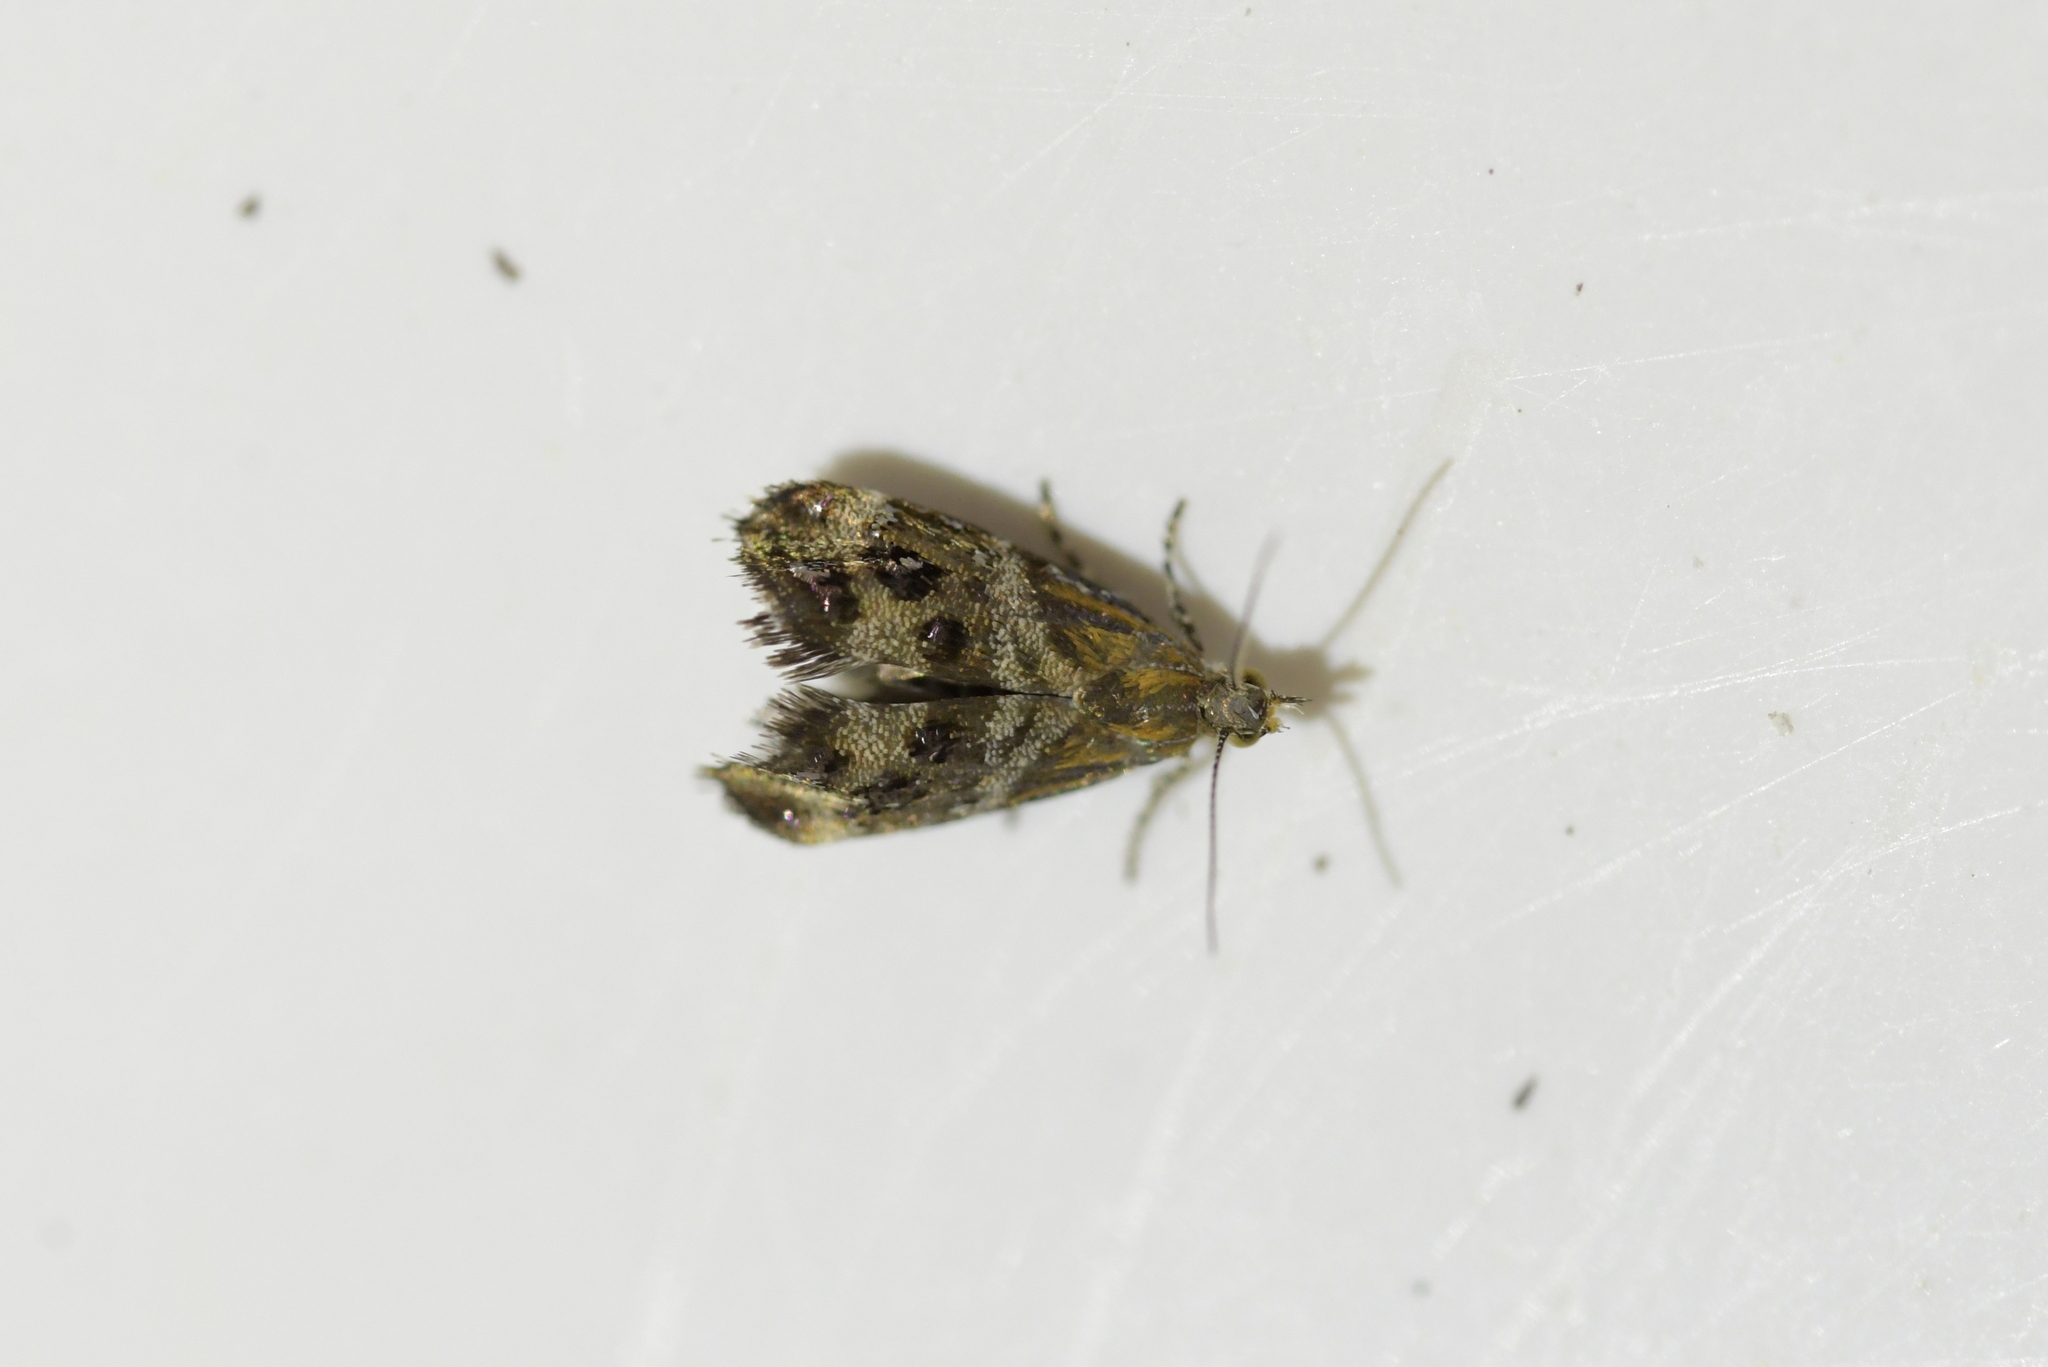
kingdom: Animalia
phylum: Arthropoda
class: Insecta
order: Lepidoptera
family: Choreutidae
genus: Tebenna
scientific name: Tebenna micalis
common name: Vagrant twitcher
